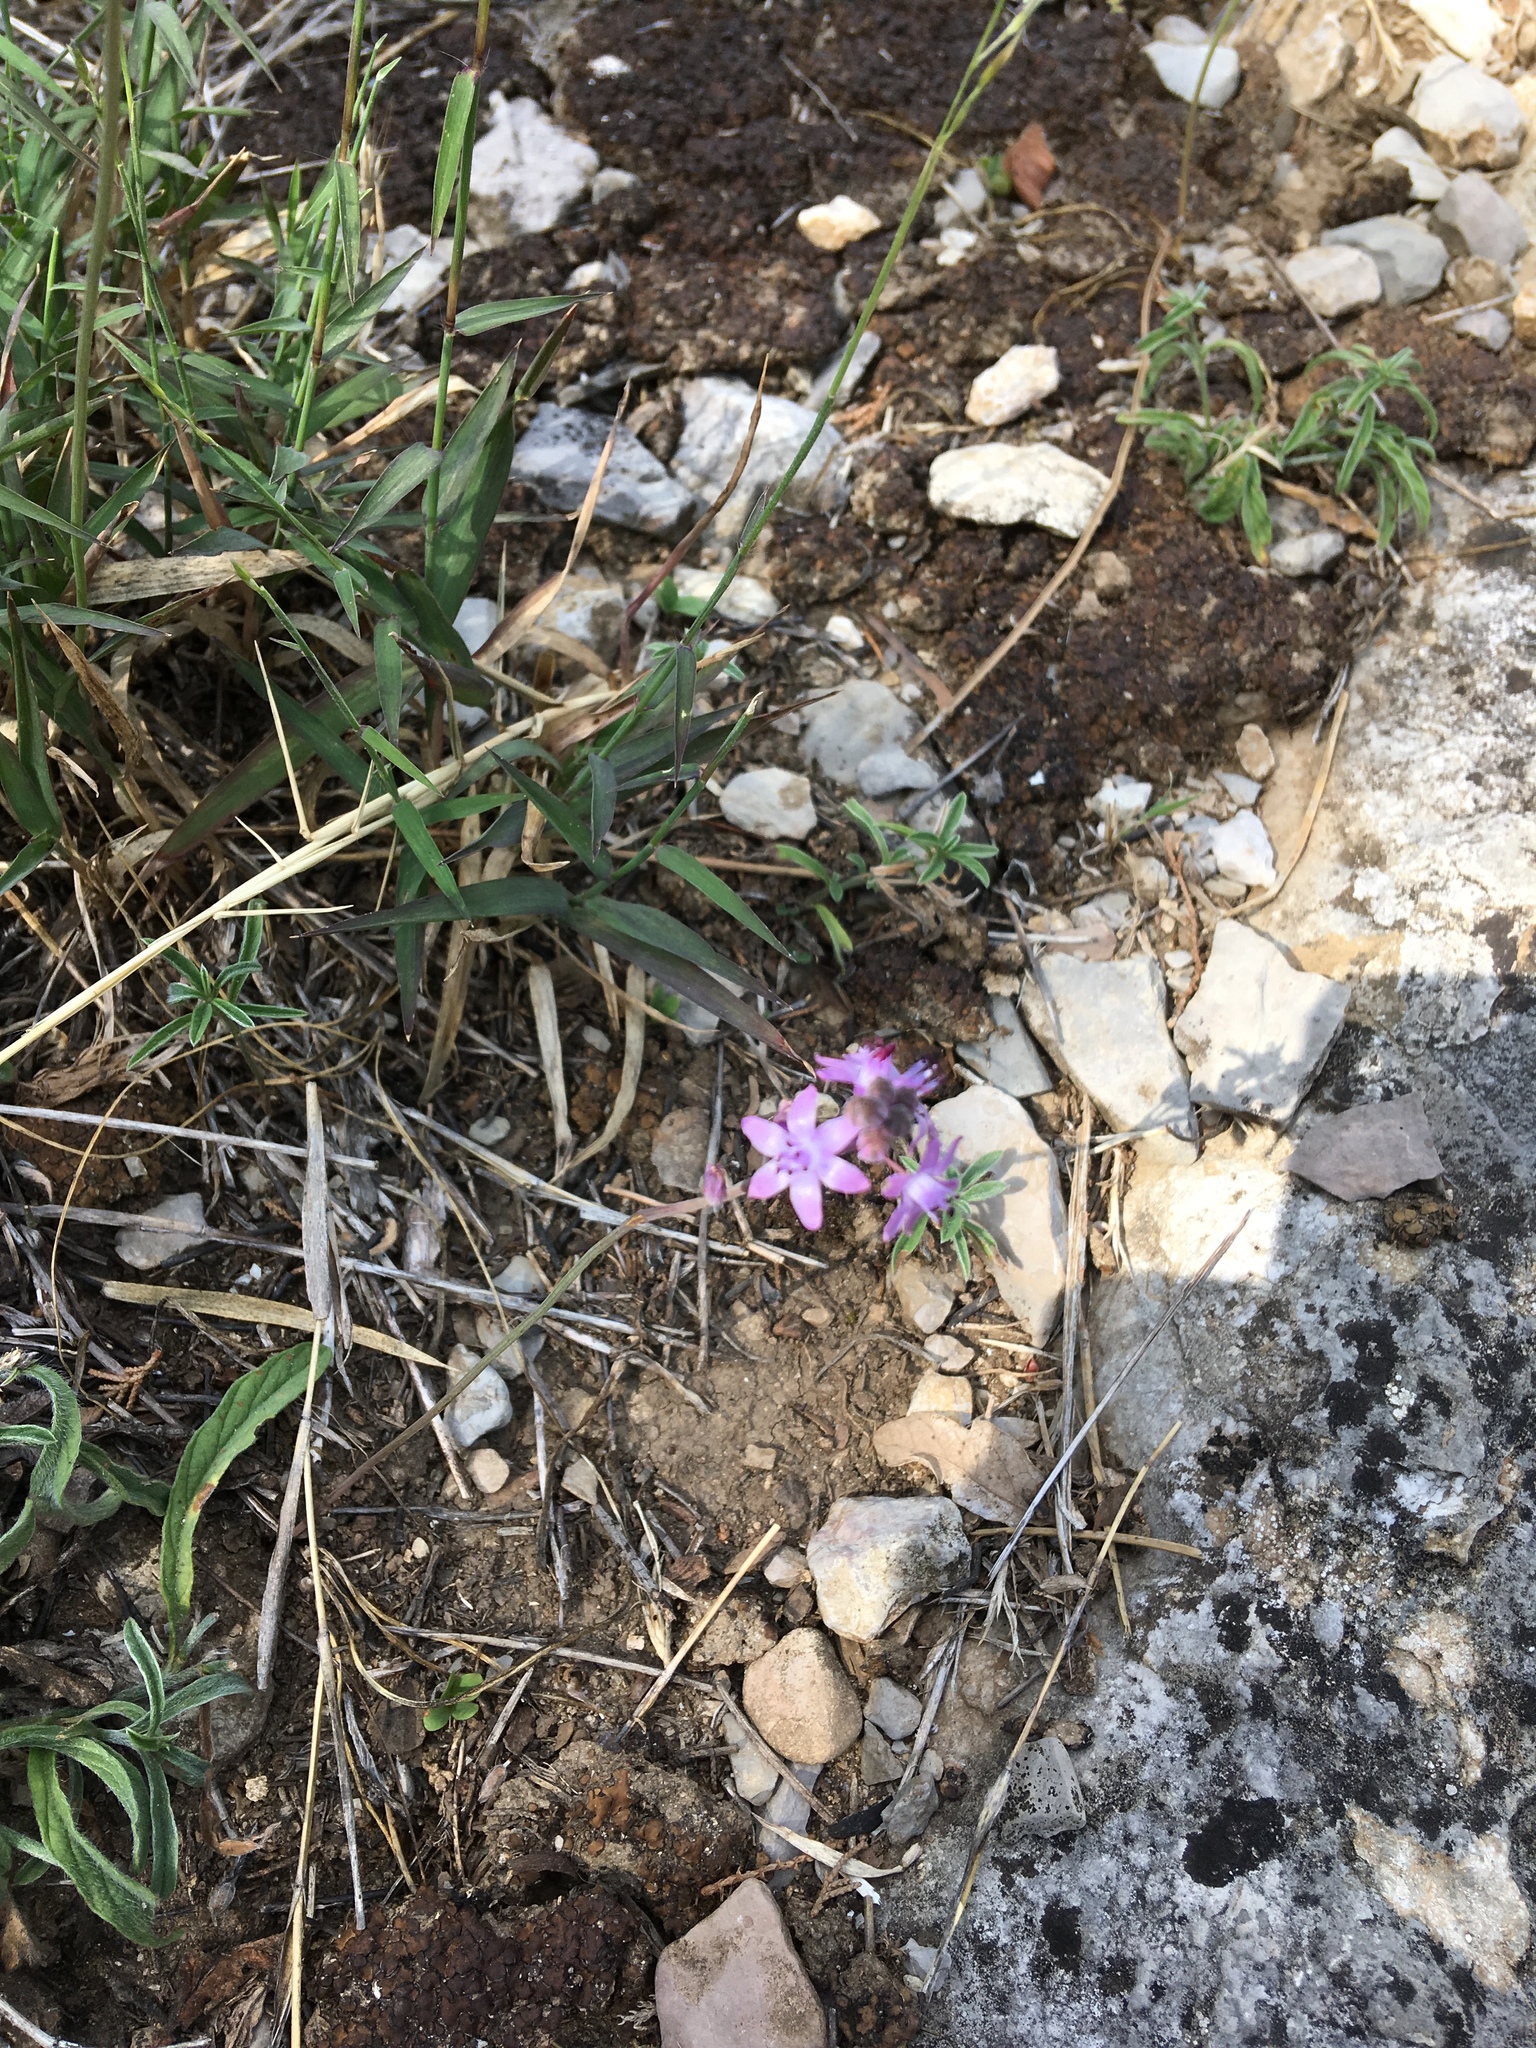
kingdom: Plantae
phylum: Tracheophyta
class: Liliopsida
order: Asparagales
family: Asparagaceae
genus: Prospero
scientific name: Prospero autumnale
